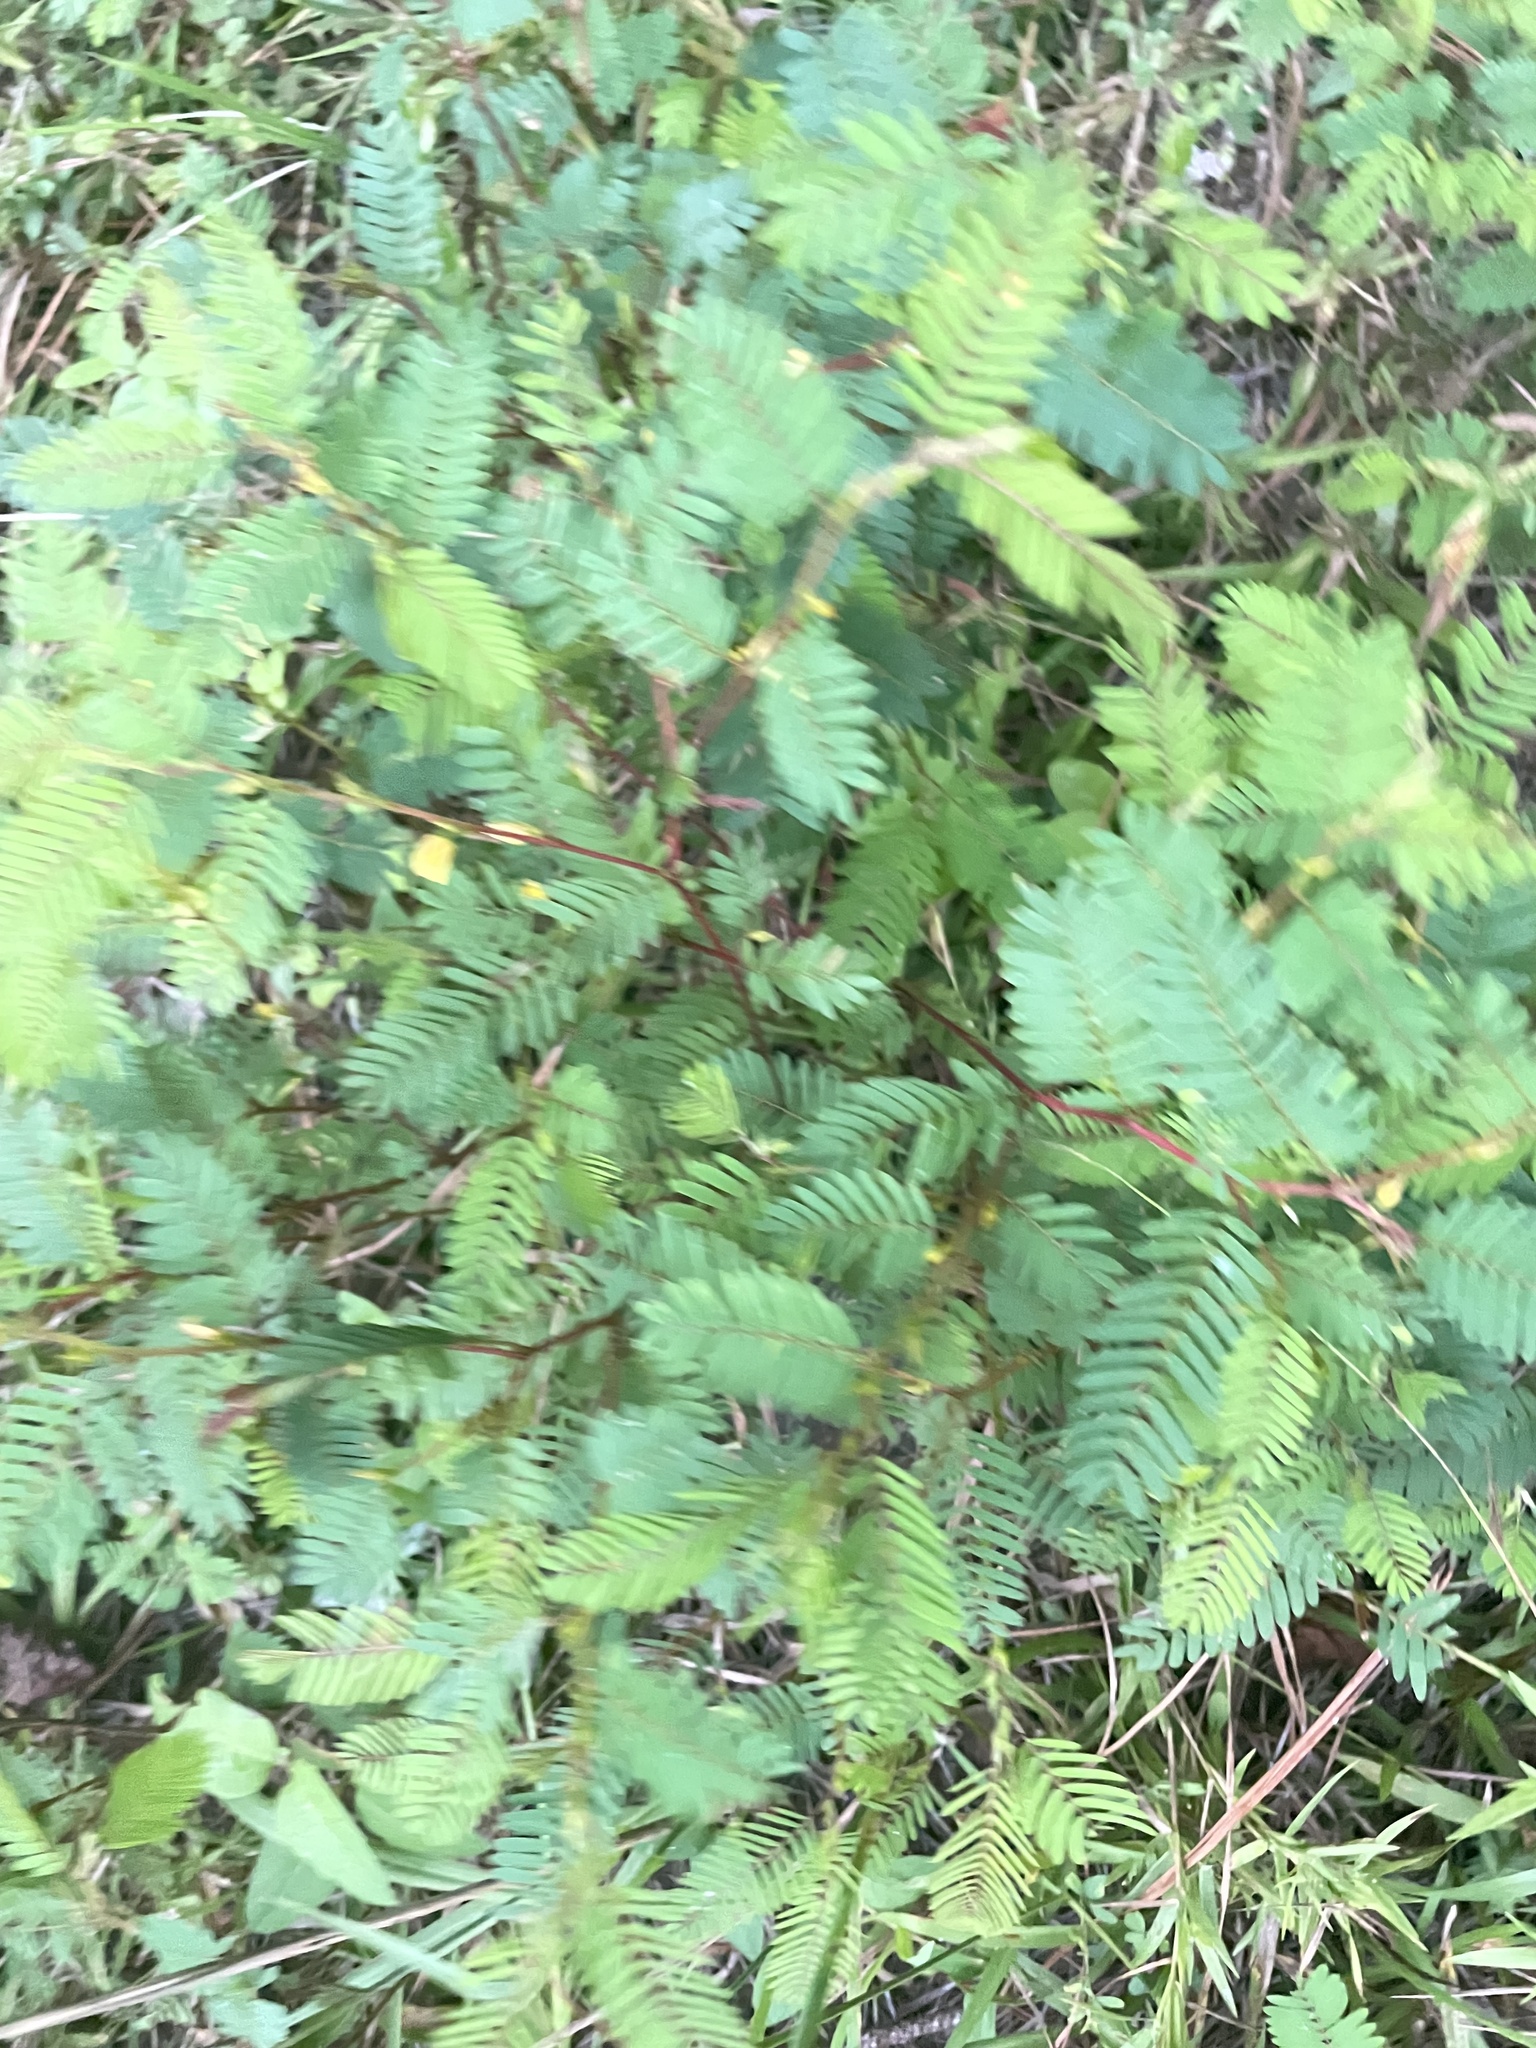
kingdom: Plantae
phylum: Tracheophyta
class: Magnoliopsida
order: Fabales
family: Fabaceae
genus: Chamaecrista
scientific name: Chamaecrista nictitans
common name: Sensitive cassia
